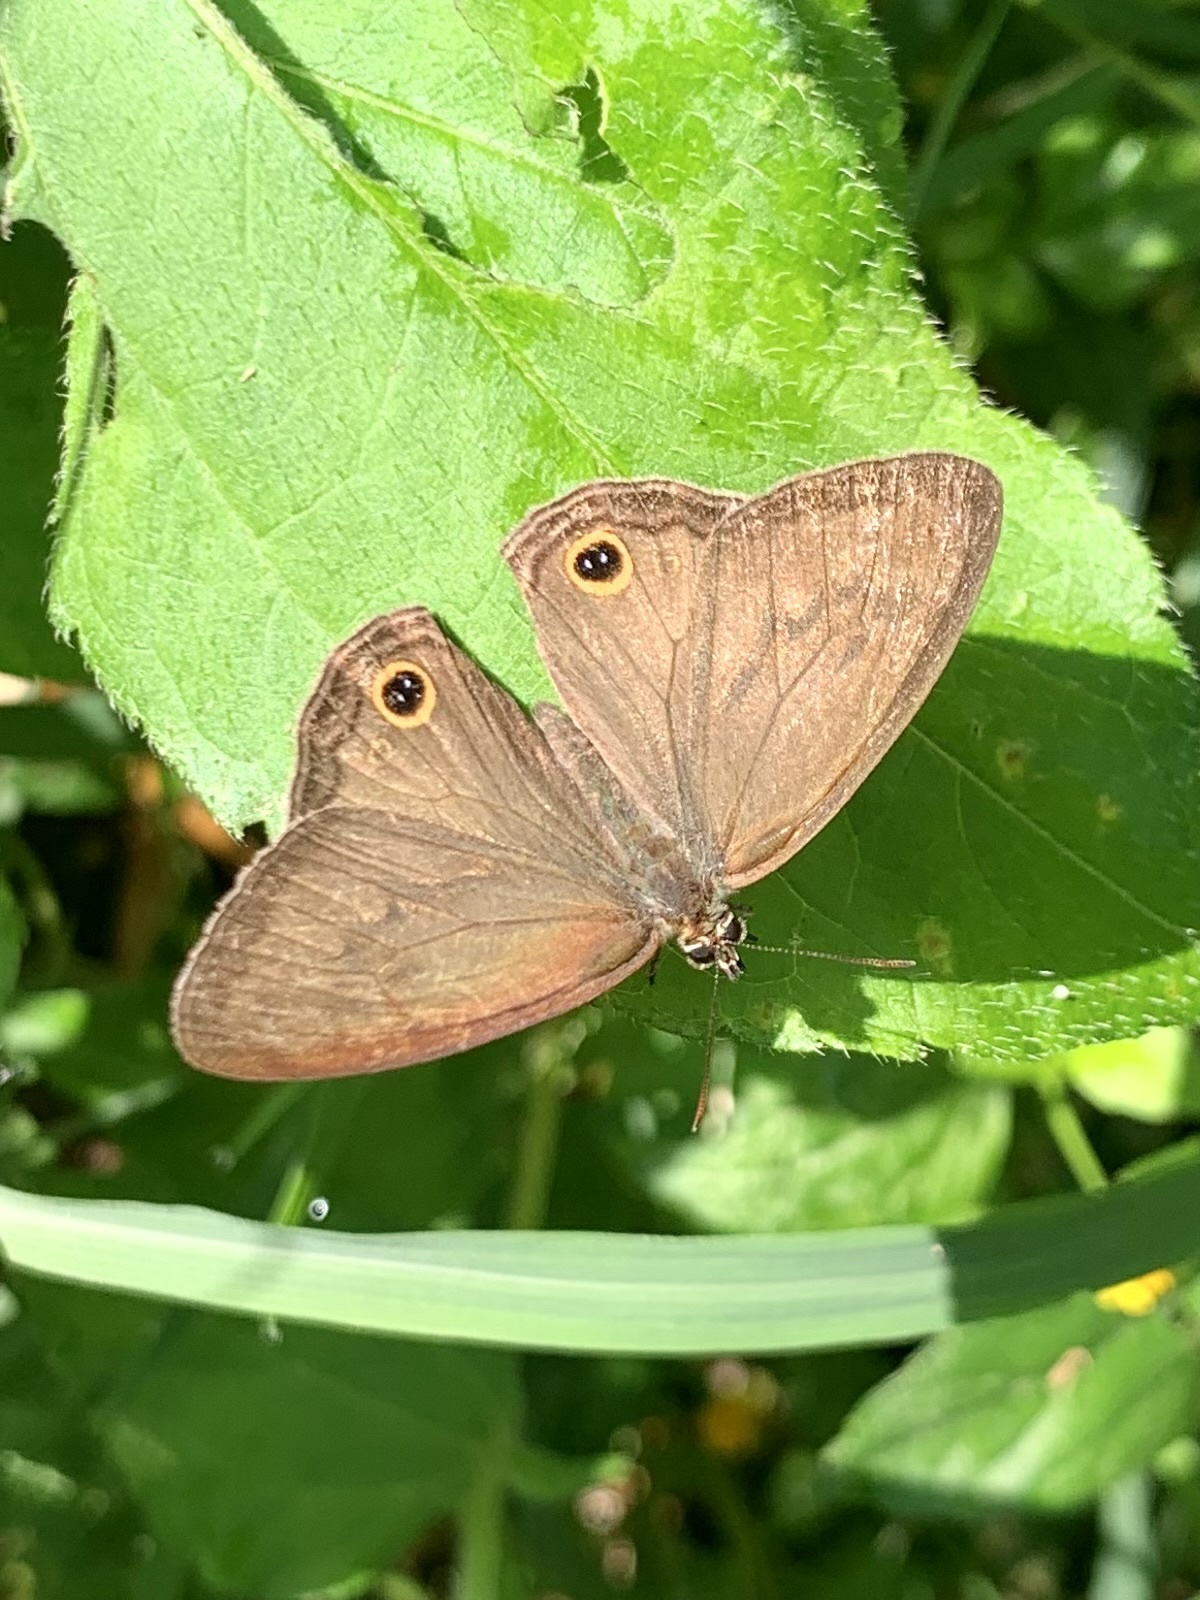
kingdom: Animalia
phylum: Arthropoda
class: Insecta
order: Lepidoptera
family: Nymphalidae
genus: Graphita
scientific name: Graphita griphe
